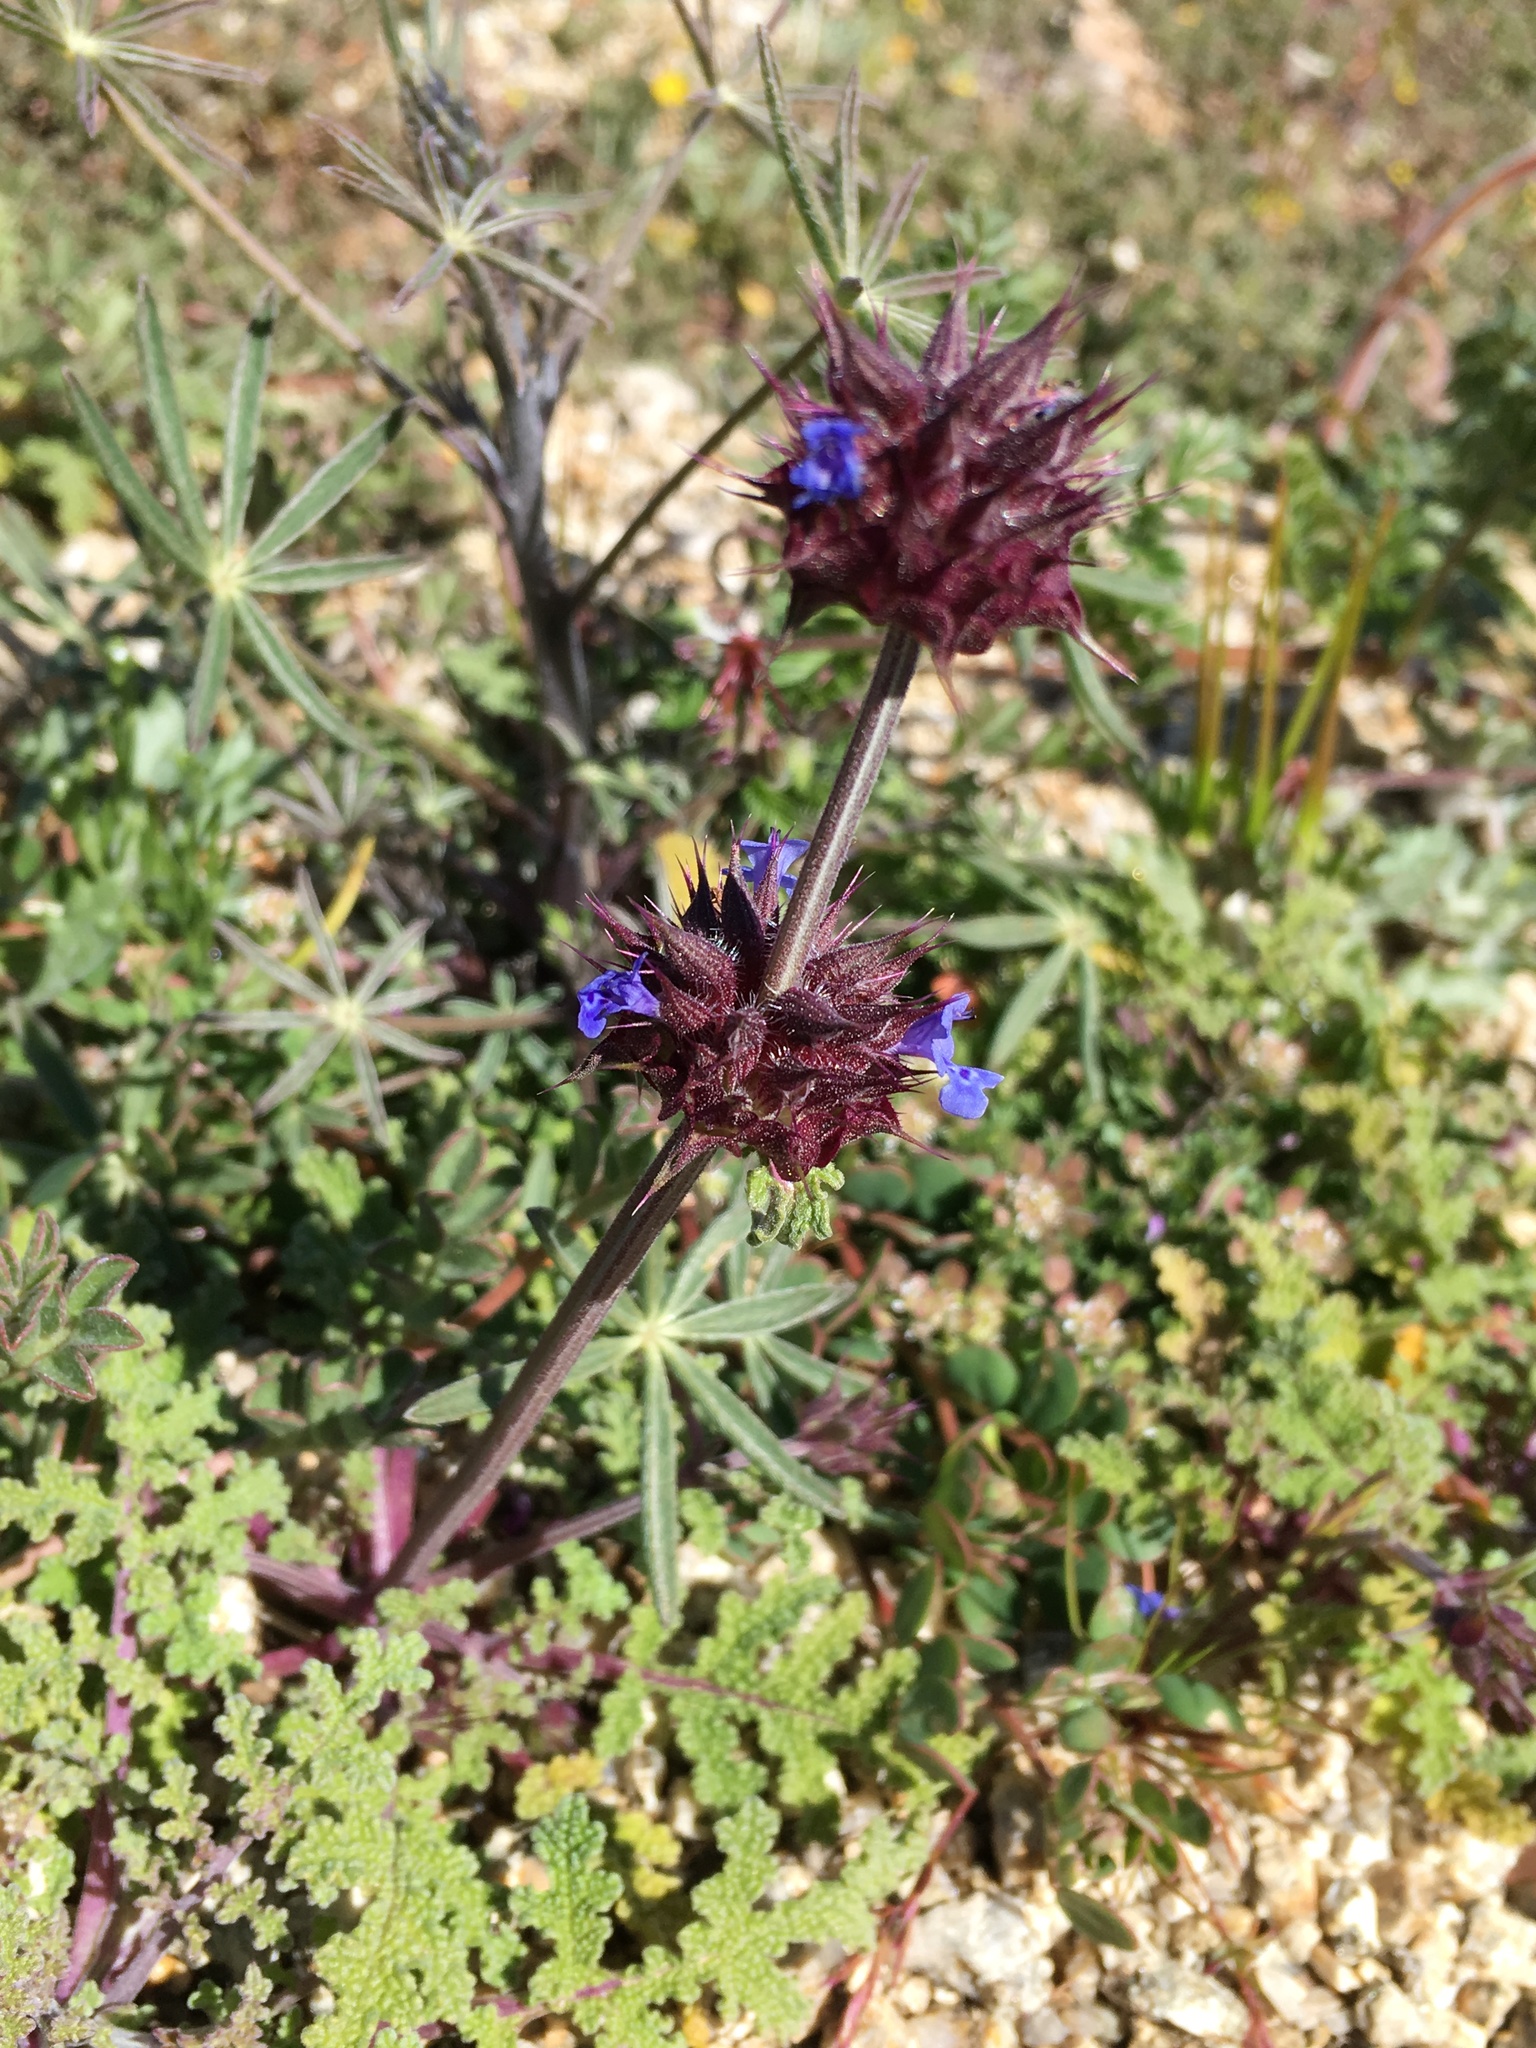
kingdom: Plantae
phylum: Tracheophyta
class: Magnoliopsida
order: Lamiales
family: Lamiaceae
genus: Salvia
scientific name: Salvia columbariae
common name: Chia
